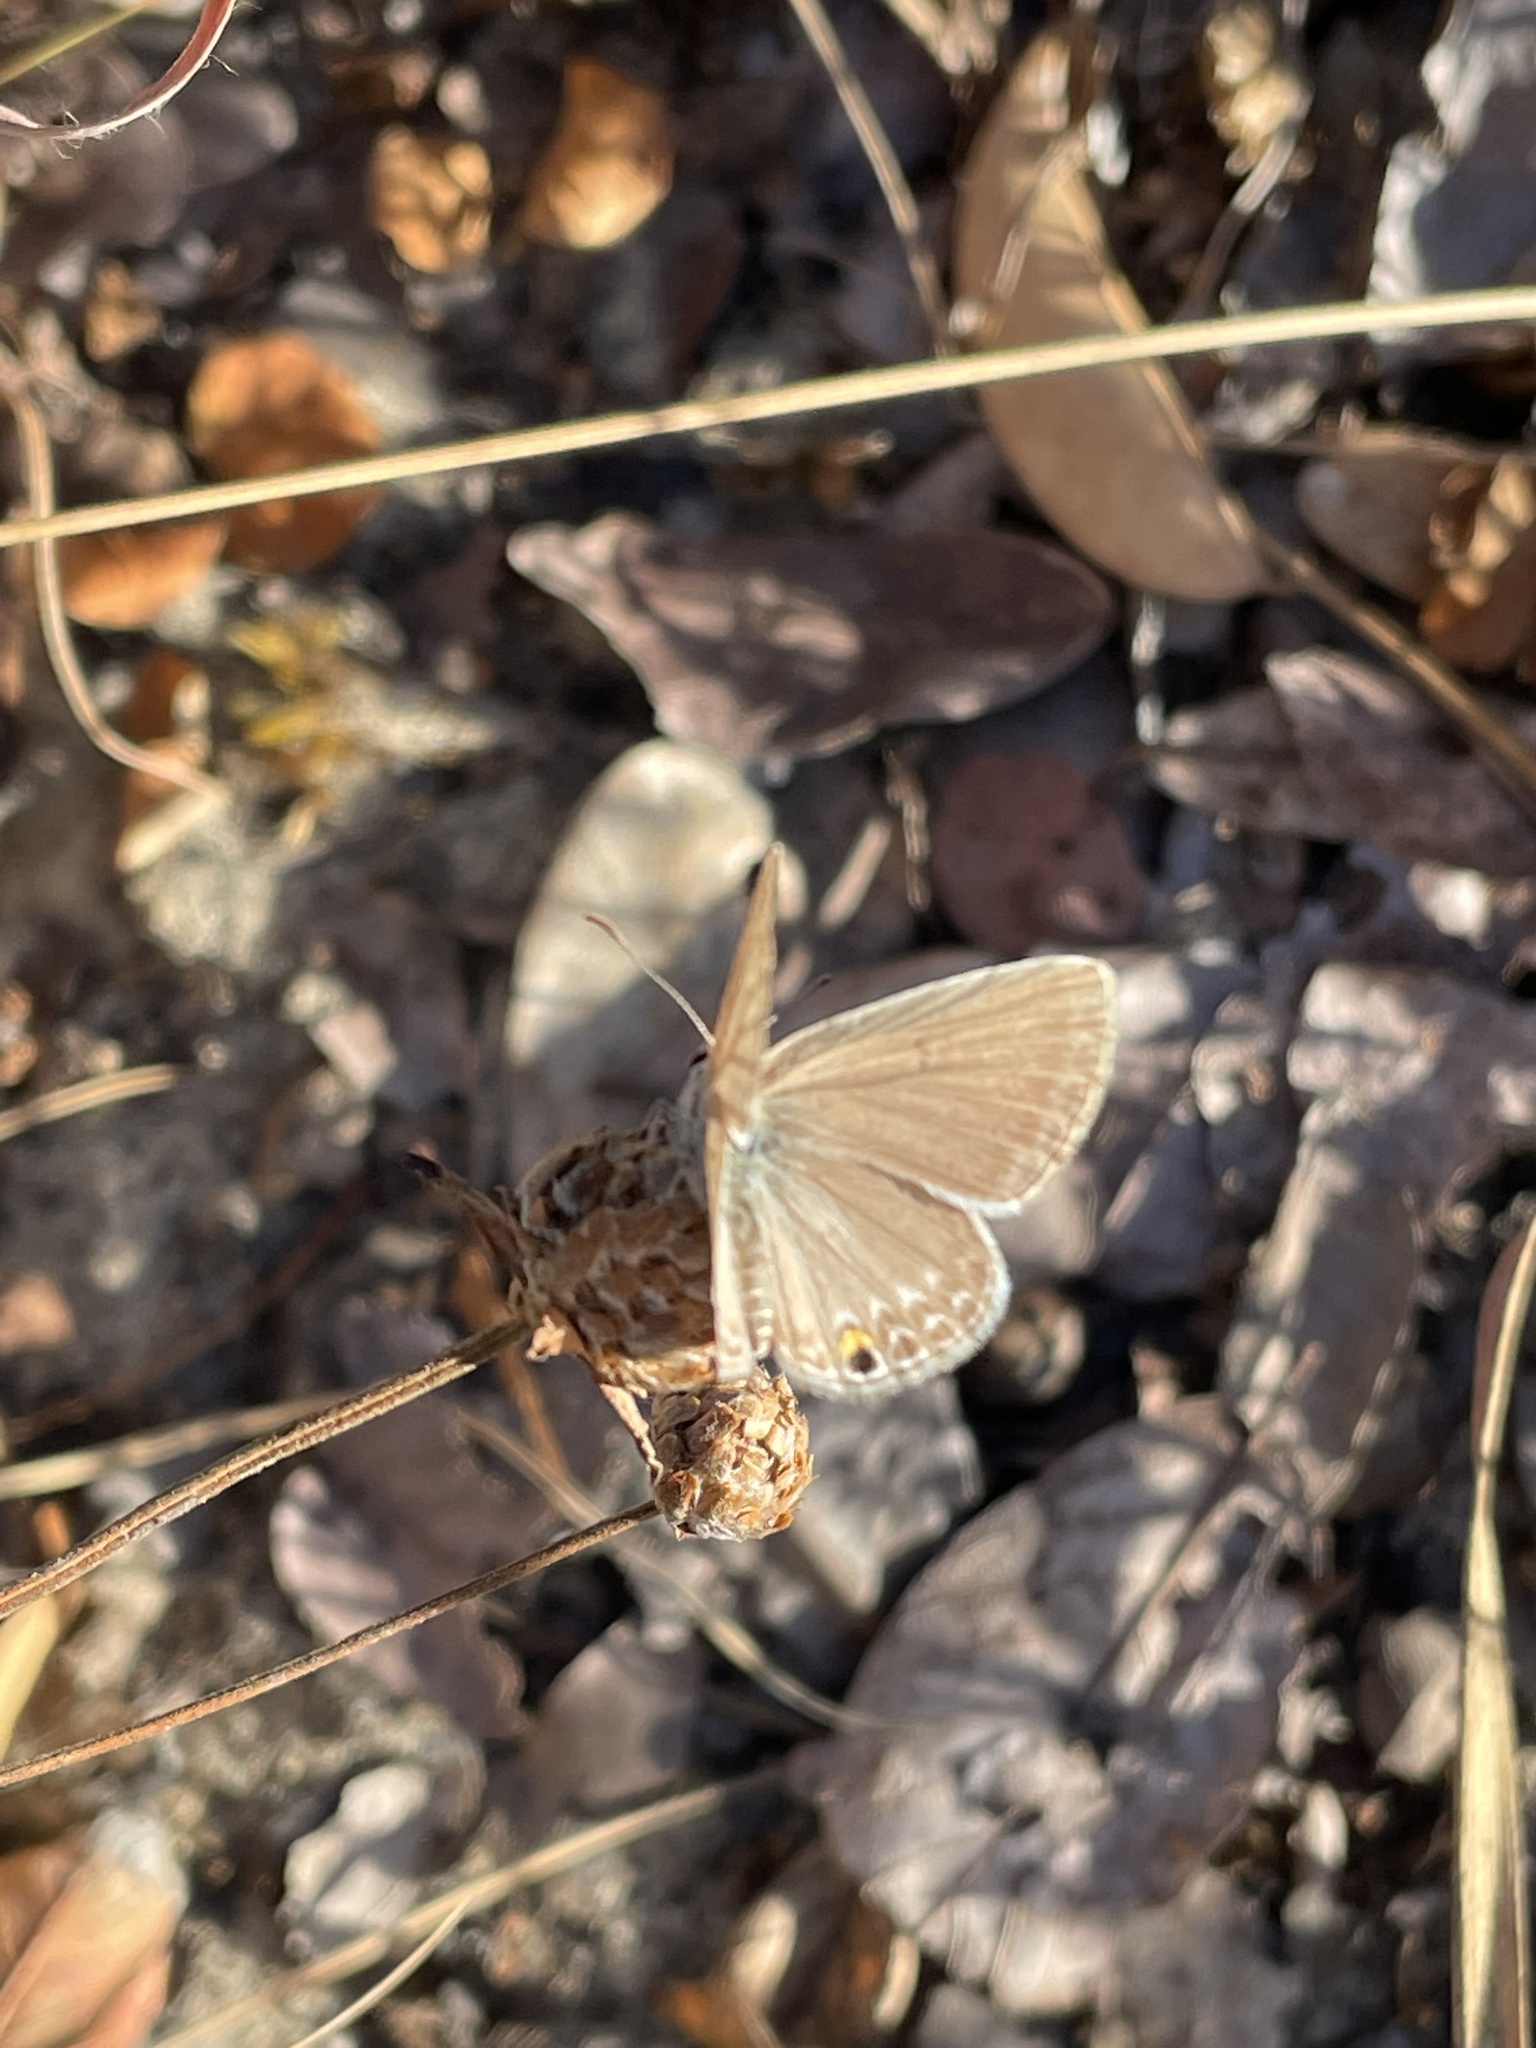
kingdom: Animalia
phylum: Arthropoda
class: Insecta
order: Lepidoptera
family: Lycaenidae
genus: Euchrysops
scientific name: Euchrysops malathana
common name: Common smoky blue
